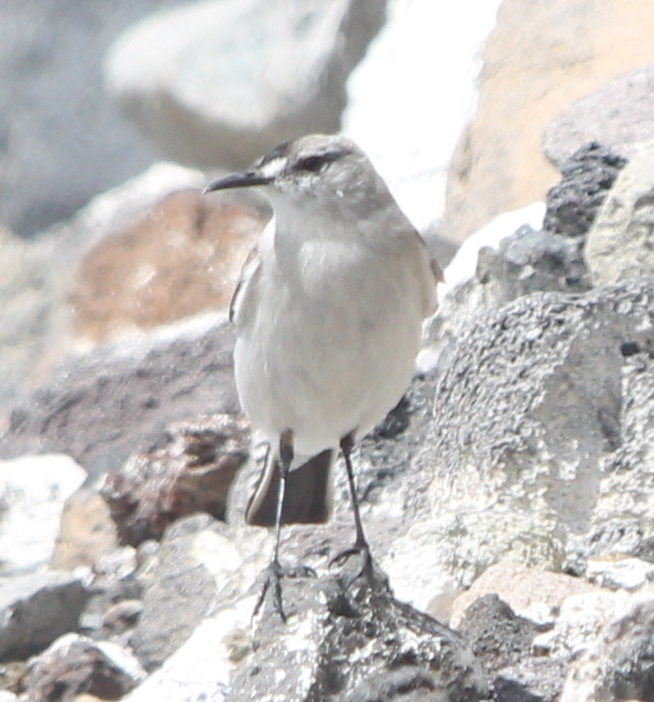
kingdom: Animalia
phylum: Chordata
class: Aves
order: Passeriformes
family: Tyrannidae
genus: Muscisaxicola
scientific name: Muscisaxicola frontalis
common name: Black-fronted ground tyrant
